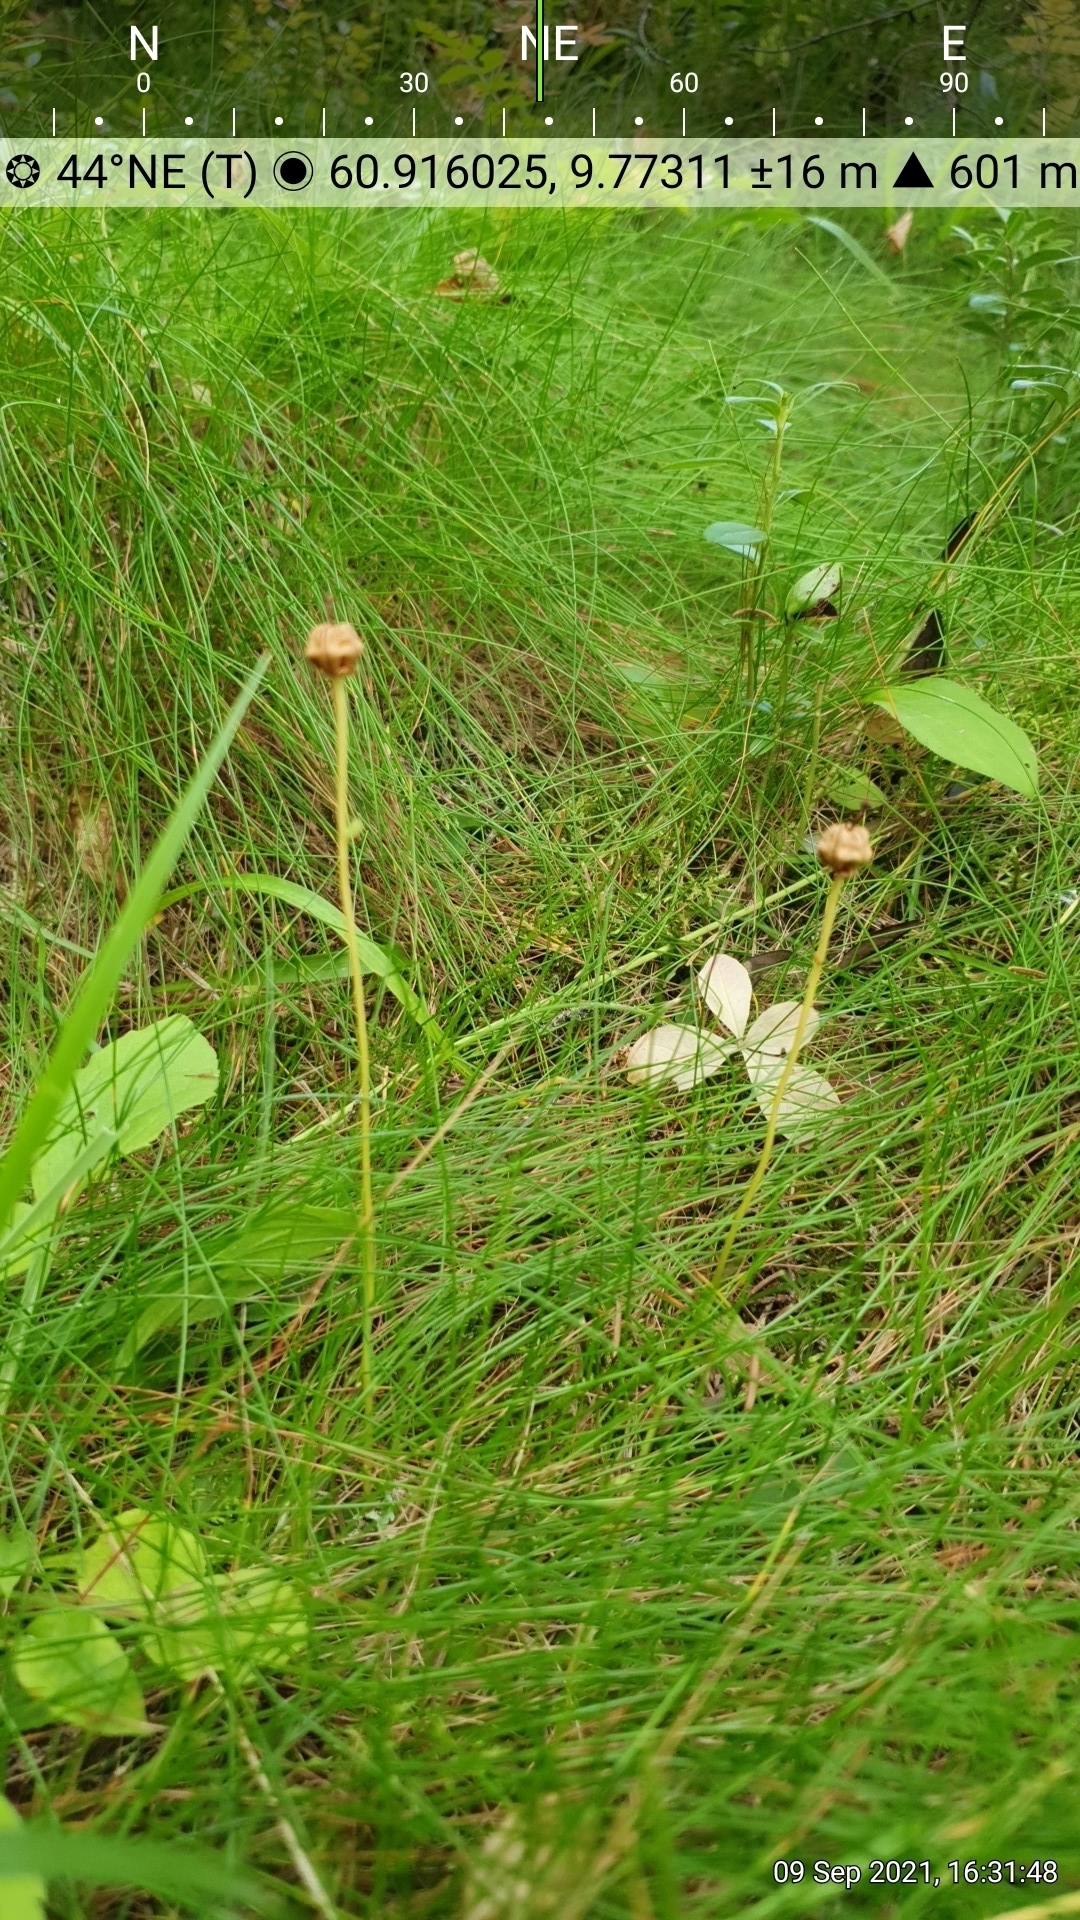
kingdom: Plantae
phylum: Tracheophyta
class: Magnoliopsida
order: Ericales
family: Ericaceae
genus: Moneses
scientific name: Moneses uniflora
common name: One-flowered wintergreen
